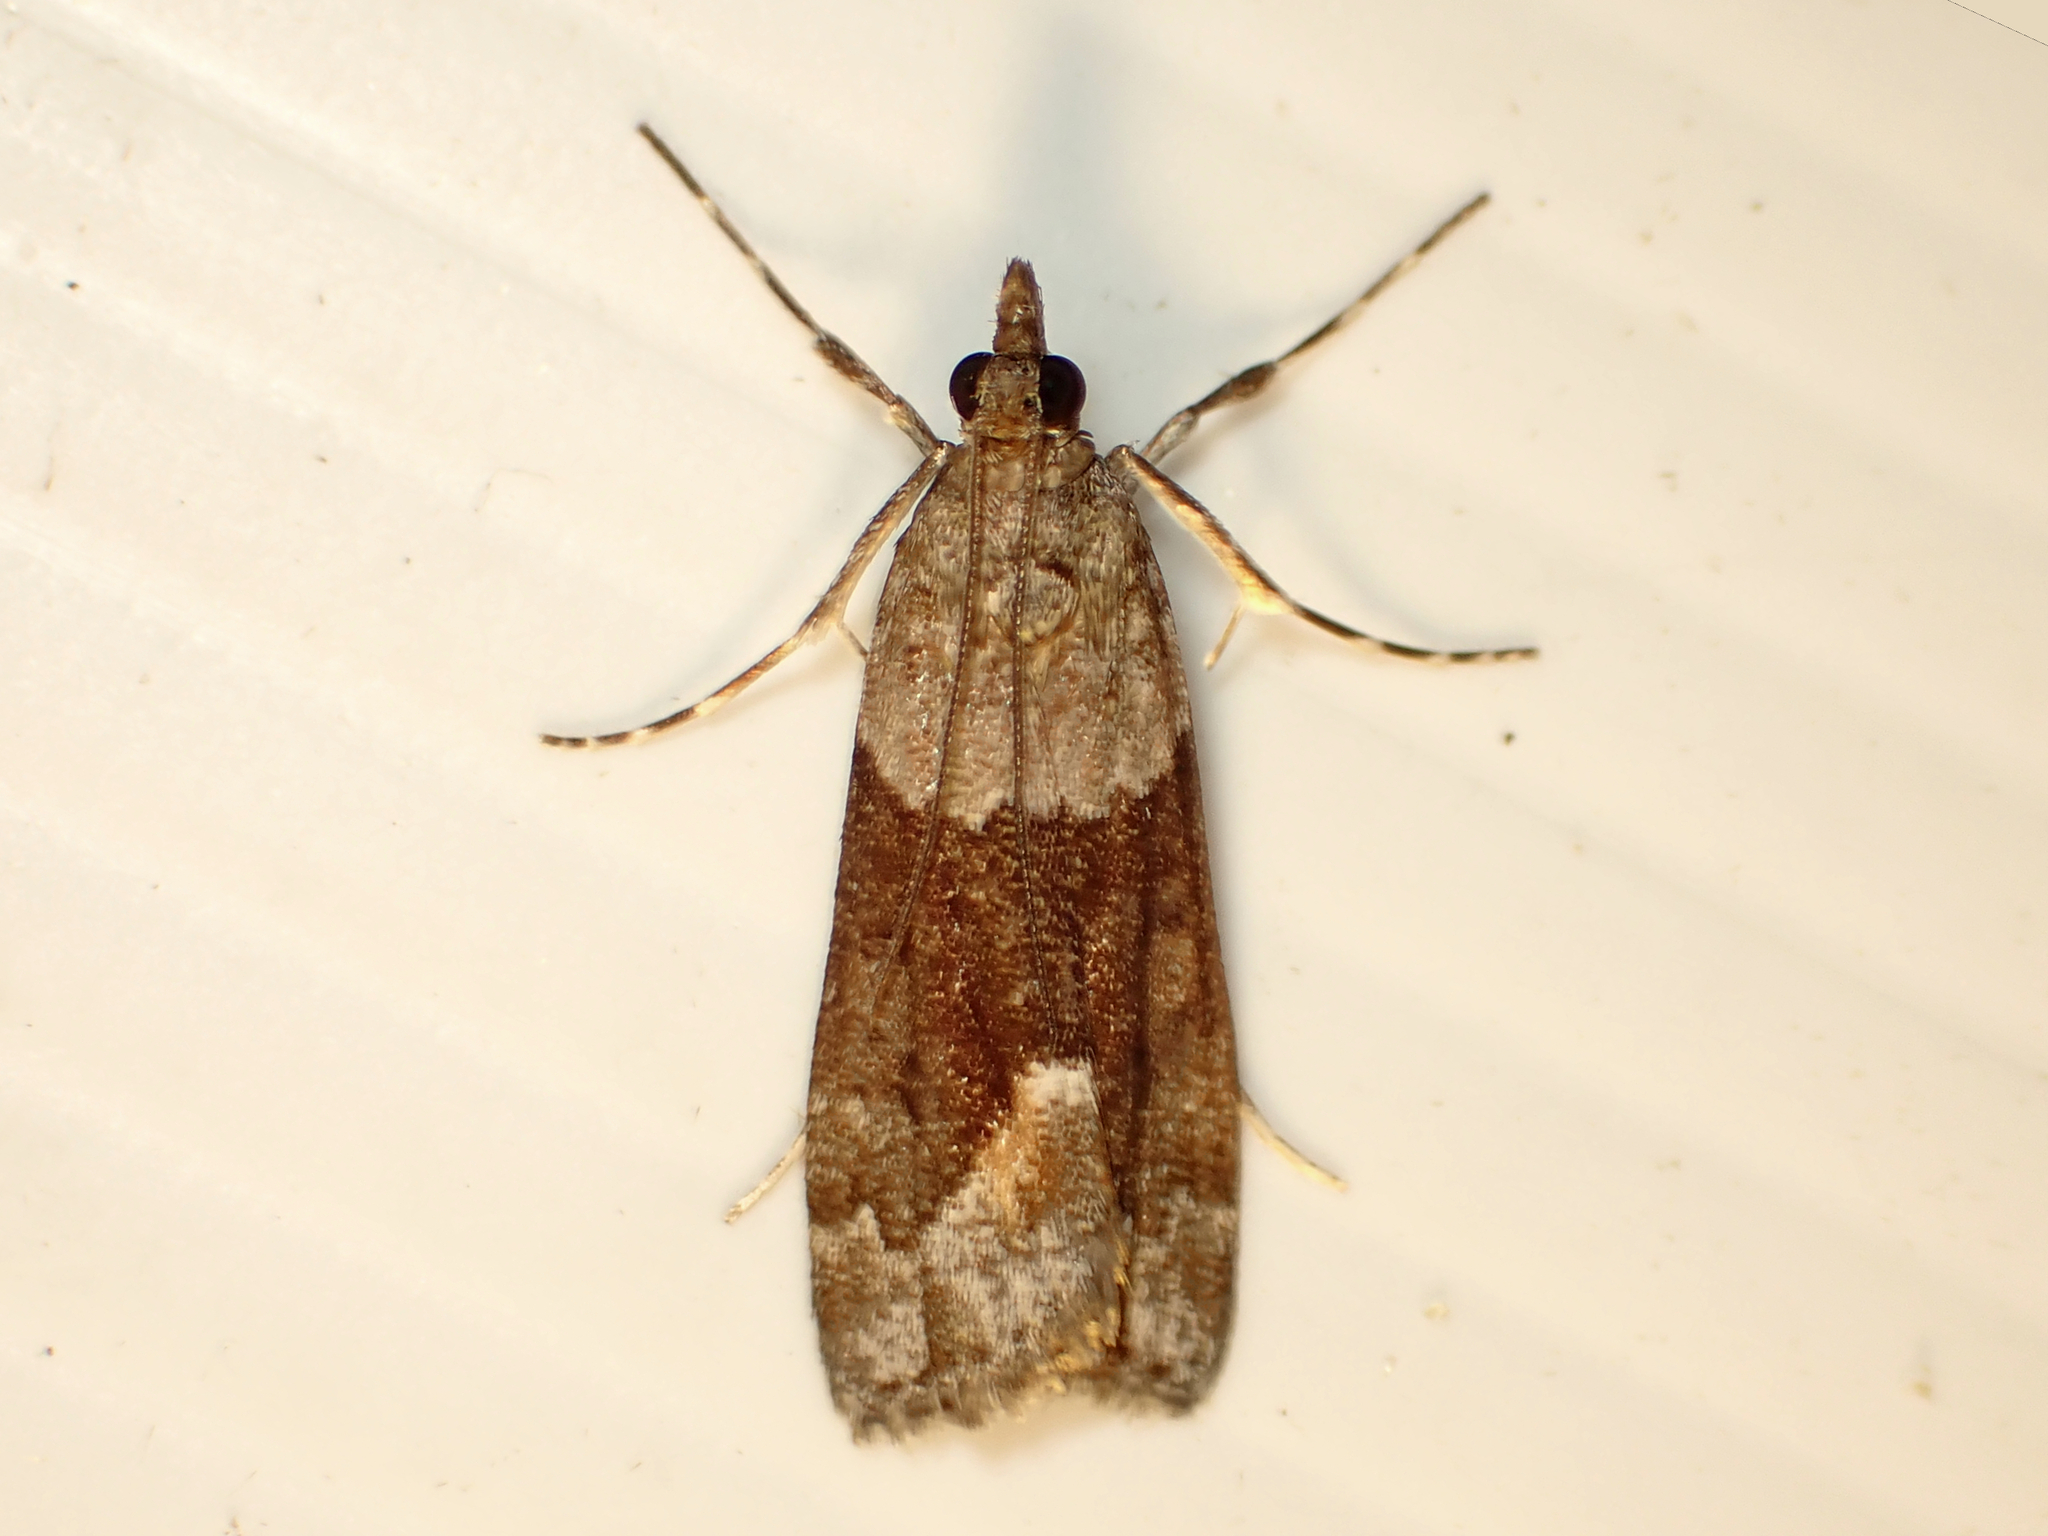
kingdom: Animalia
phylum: Arthropoda
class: Insecta
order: Lepidoptera
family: Crambidae
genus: Eudonia
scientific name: Eudonia submarginalis
